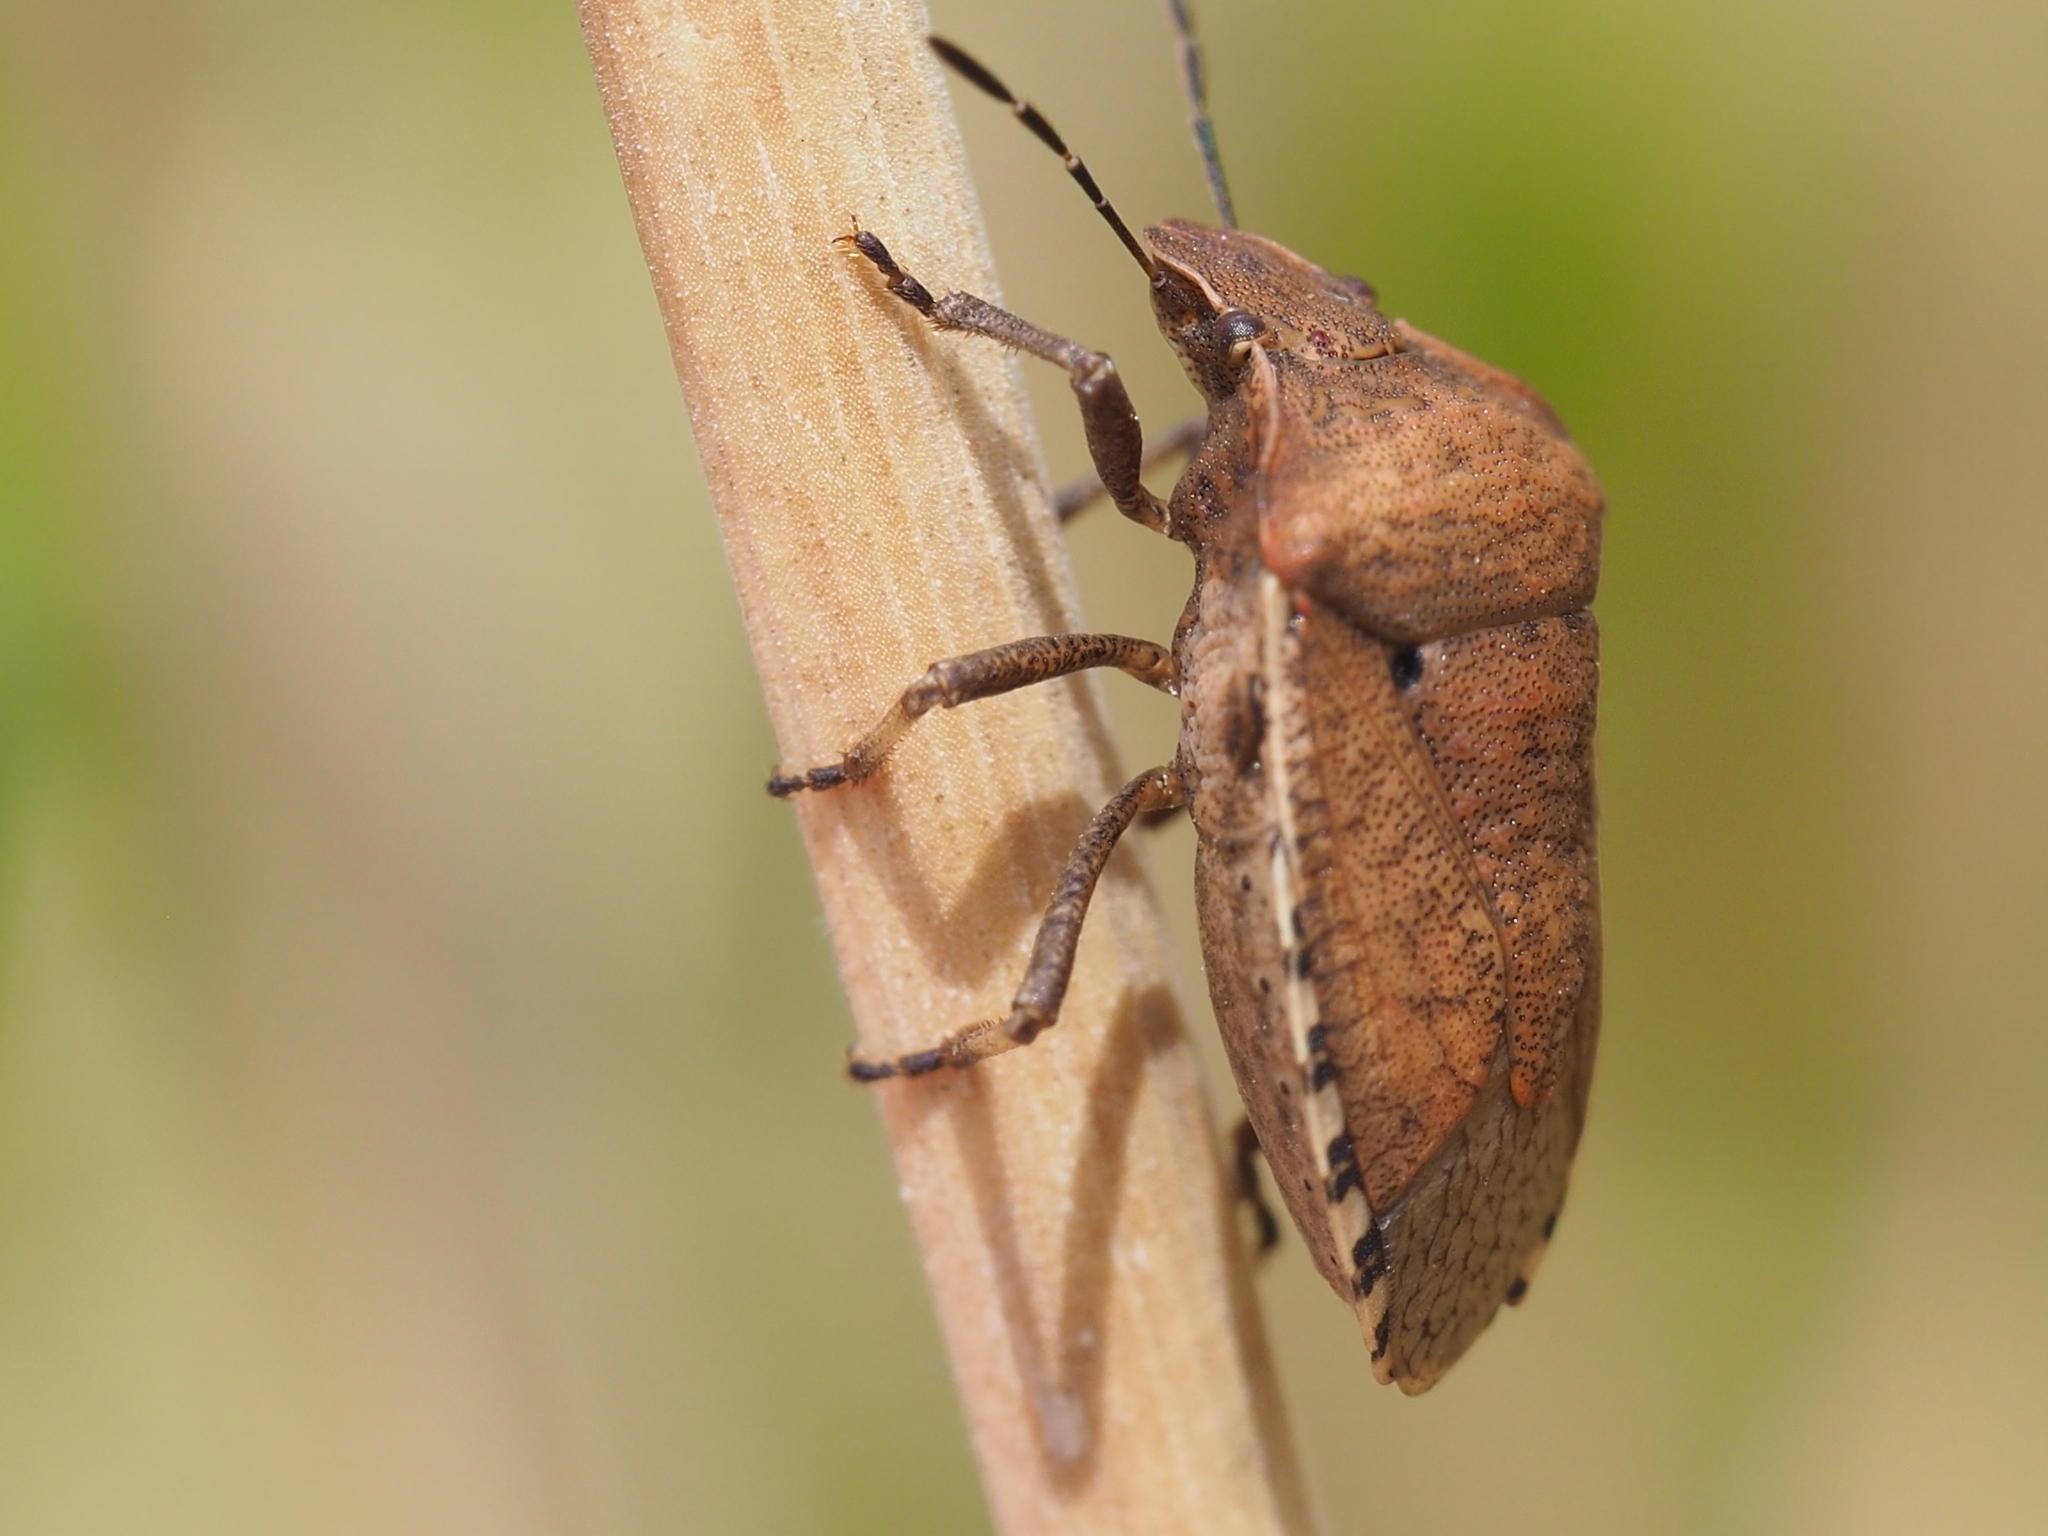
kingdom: Animalia
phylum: Arthropoda
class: Insecta
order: Hemiptera
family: Pentatomidae
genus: Dictyotus
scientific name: Dictyotus caenosus
